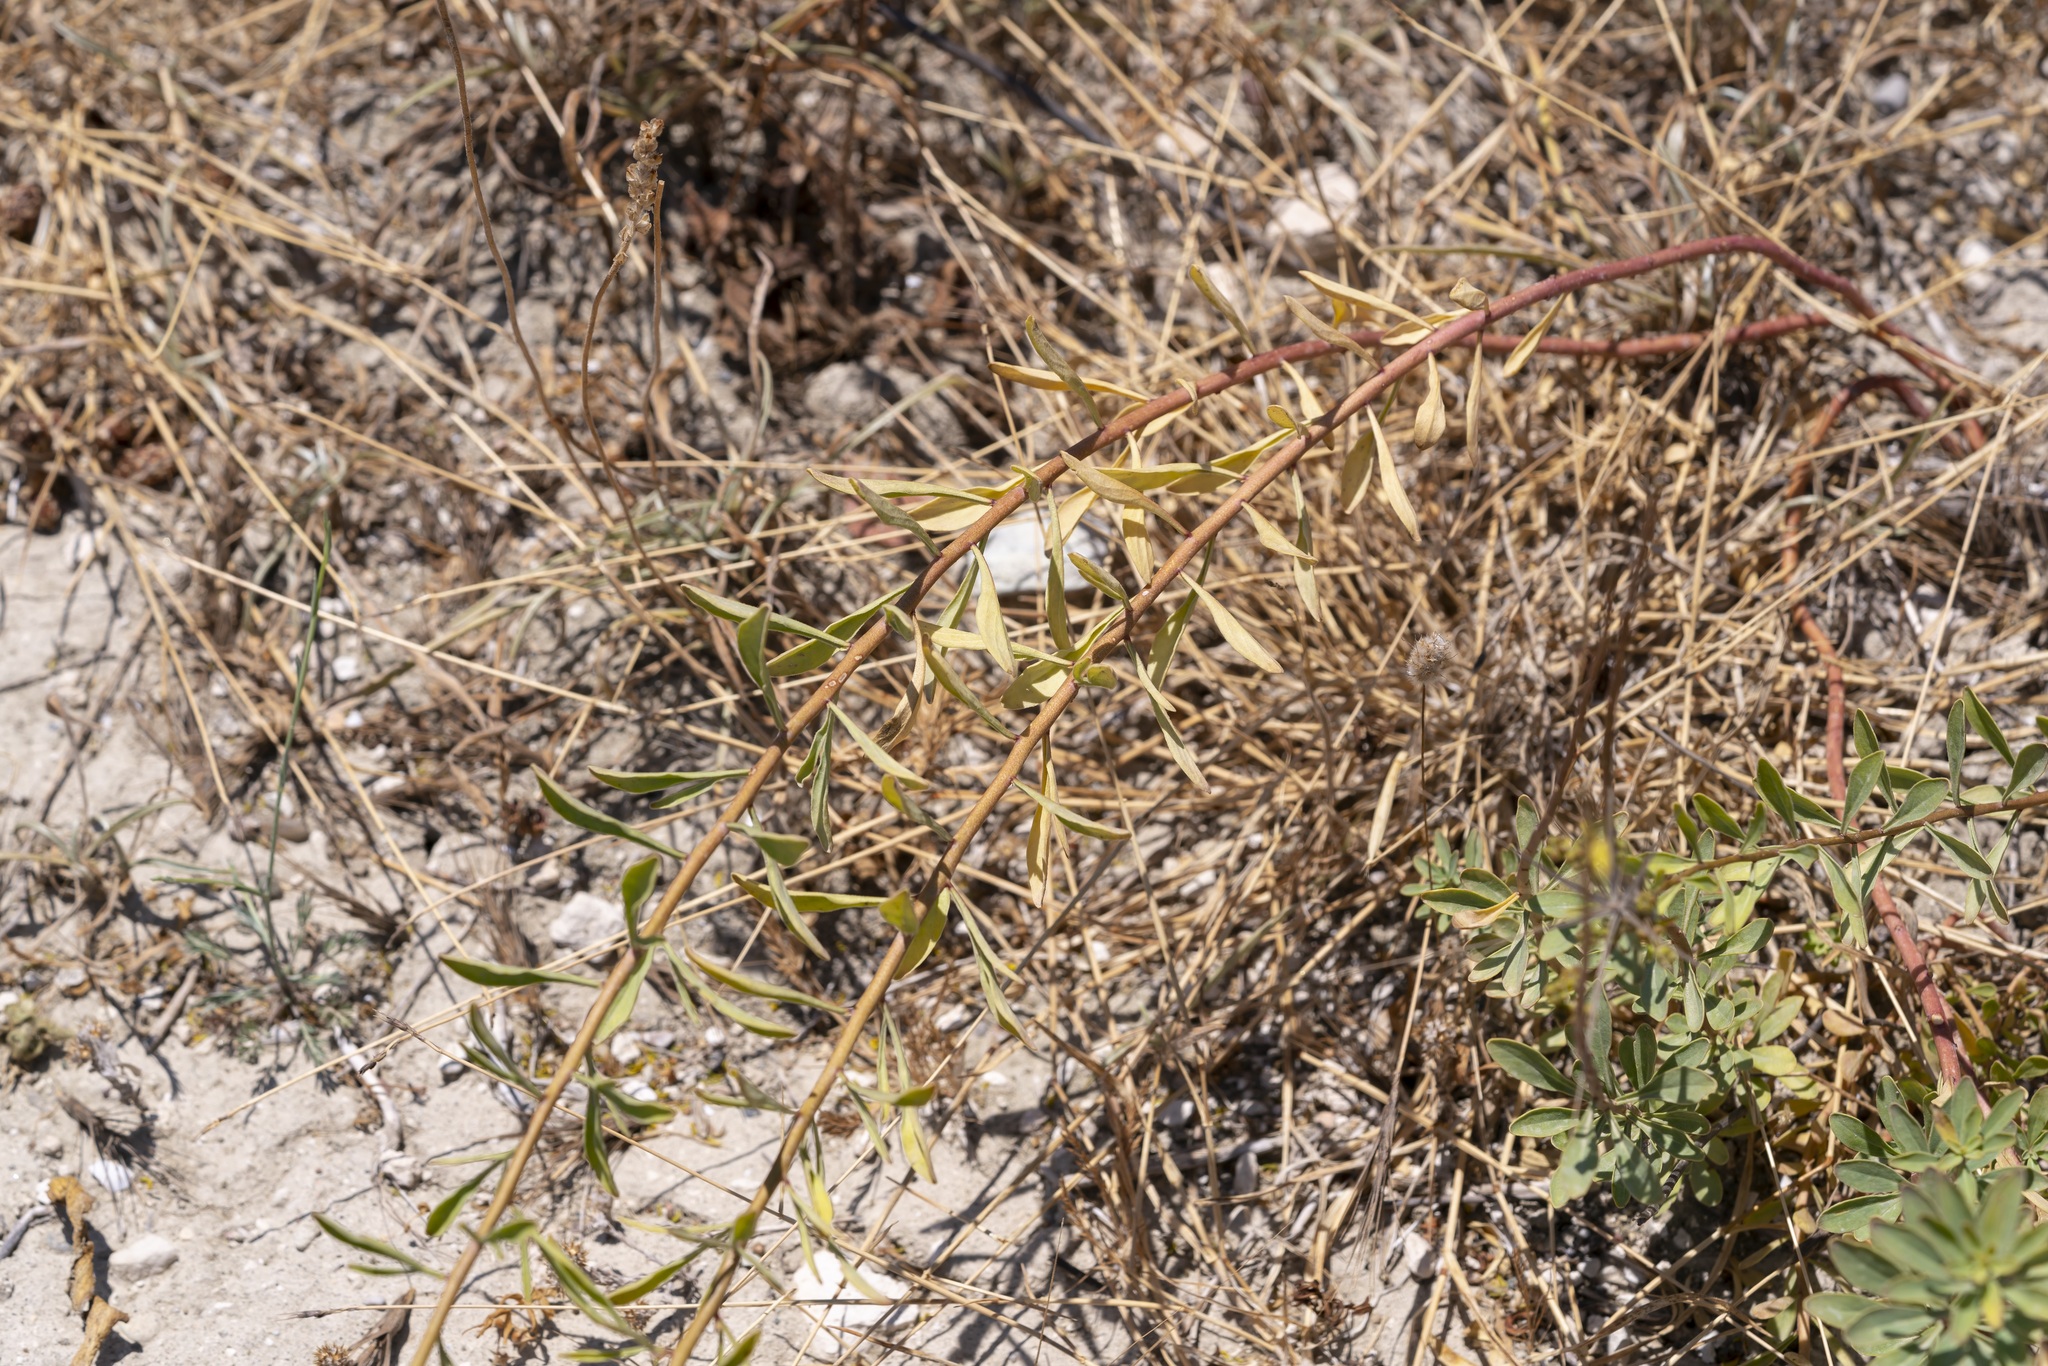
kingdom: Plantae
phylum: Tracheophyta
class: Magnoliopsida
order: Sapindales
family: Rutaceae
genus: Haplophyllum
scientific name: Haplophyllum buxbaumii
